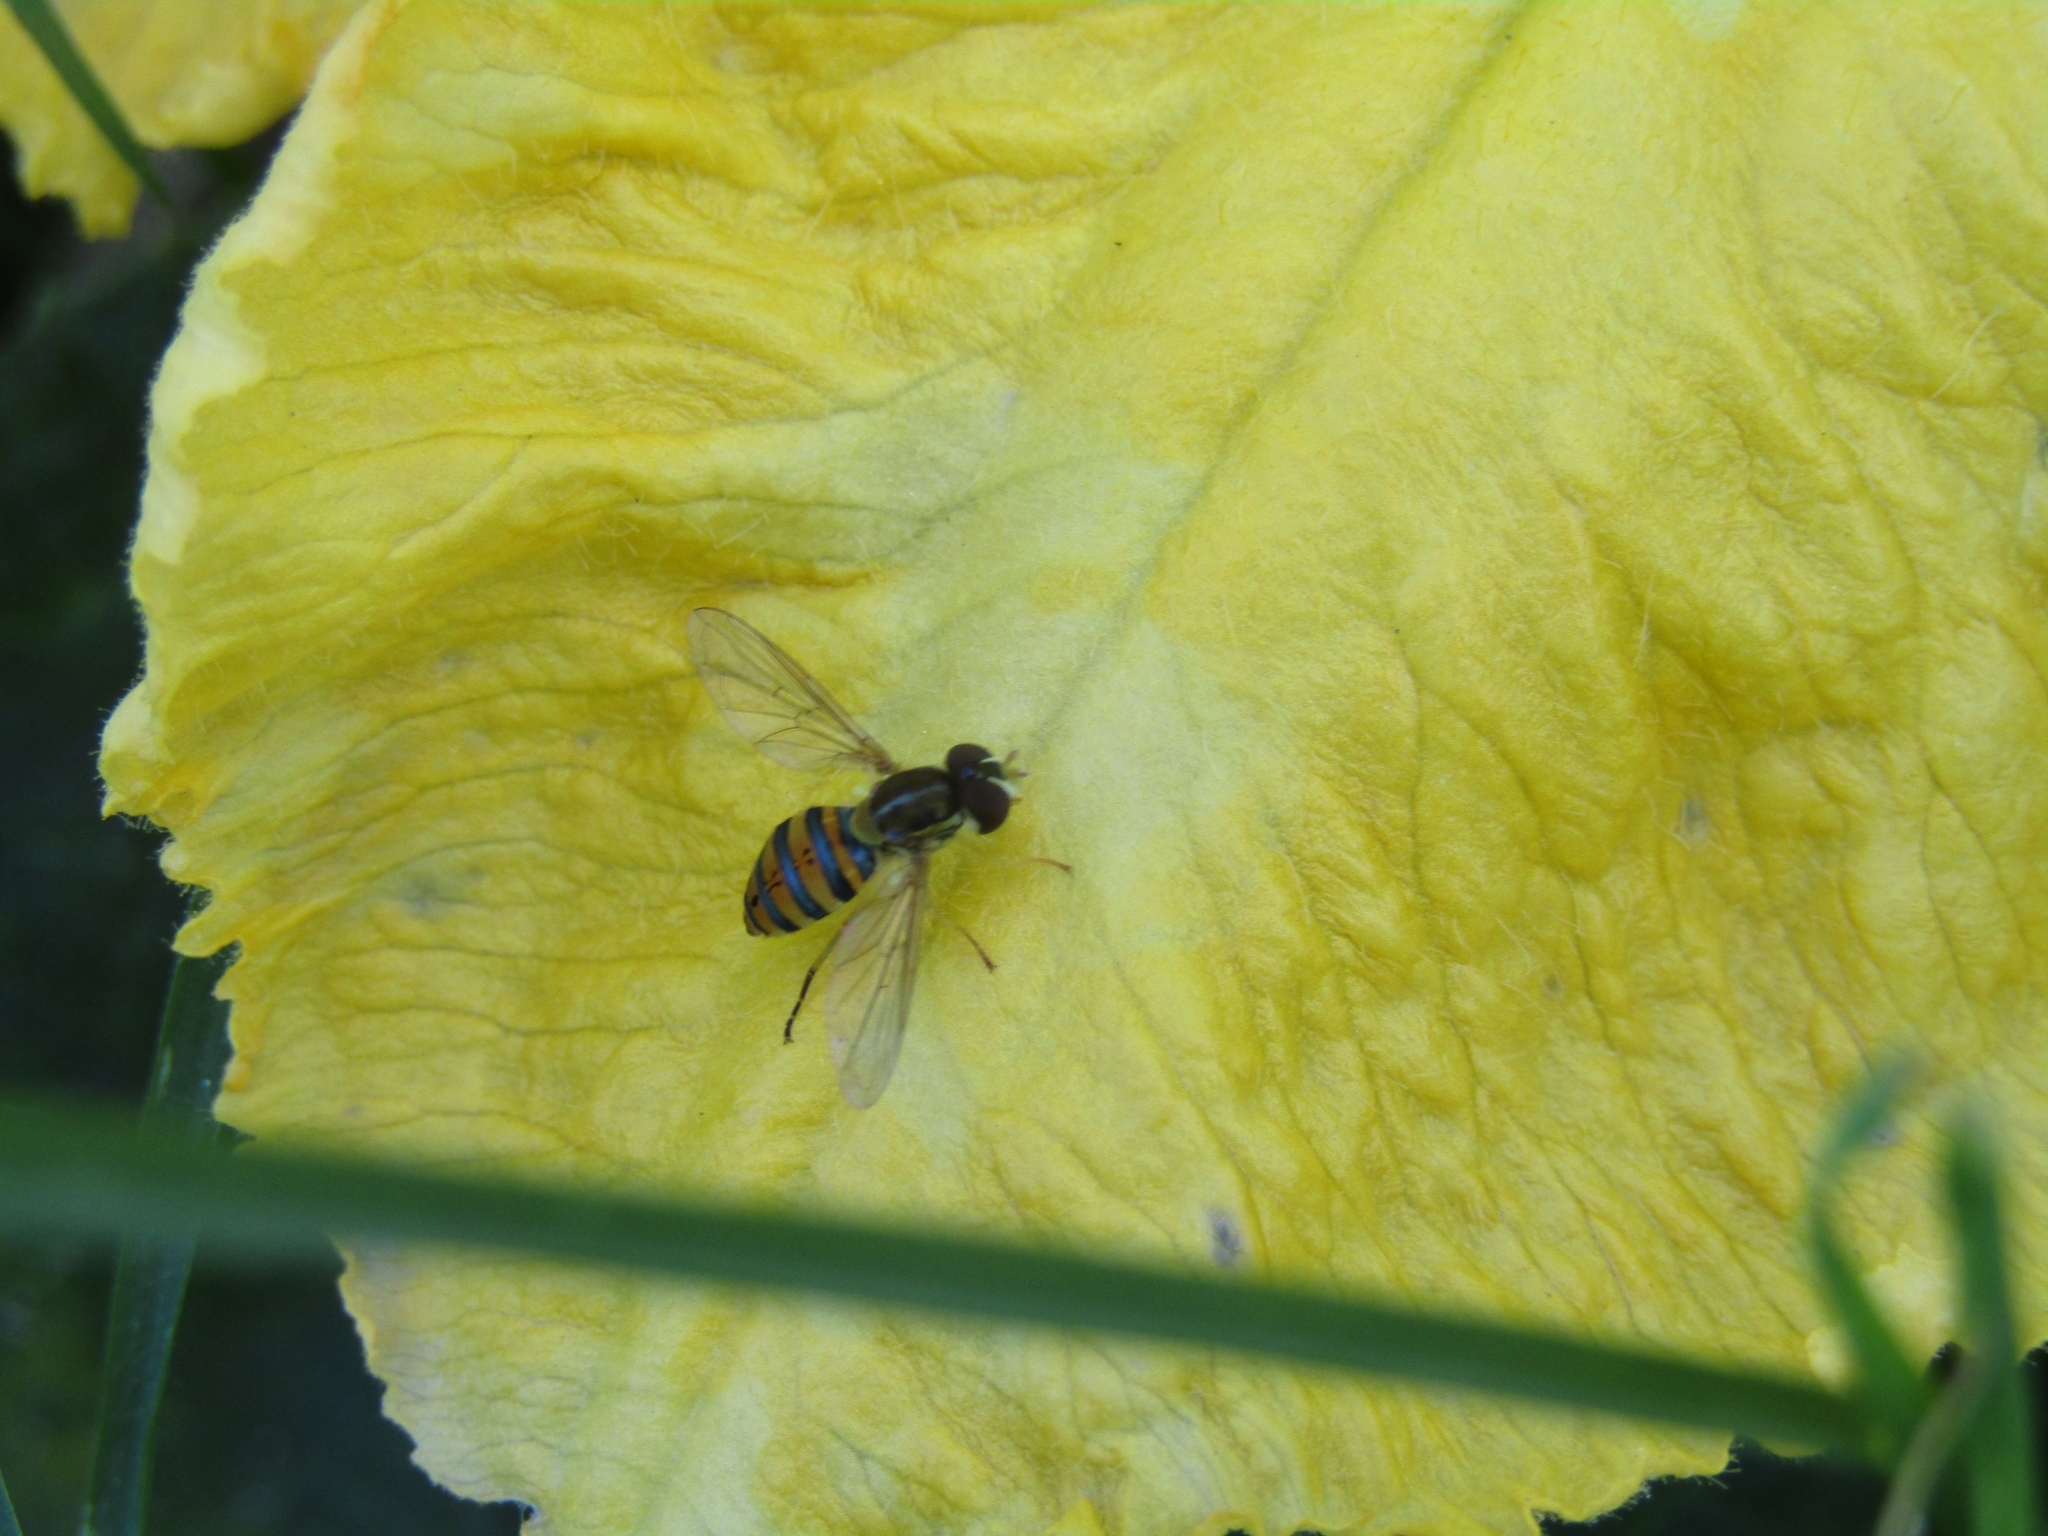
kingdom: Animalia
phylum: Arthropoda
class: Insecta
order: Diptera
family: Syrphidae
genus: Toxomerus
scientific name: Toxomerus
